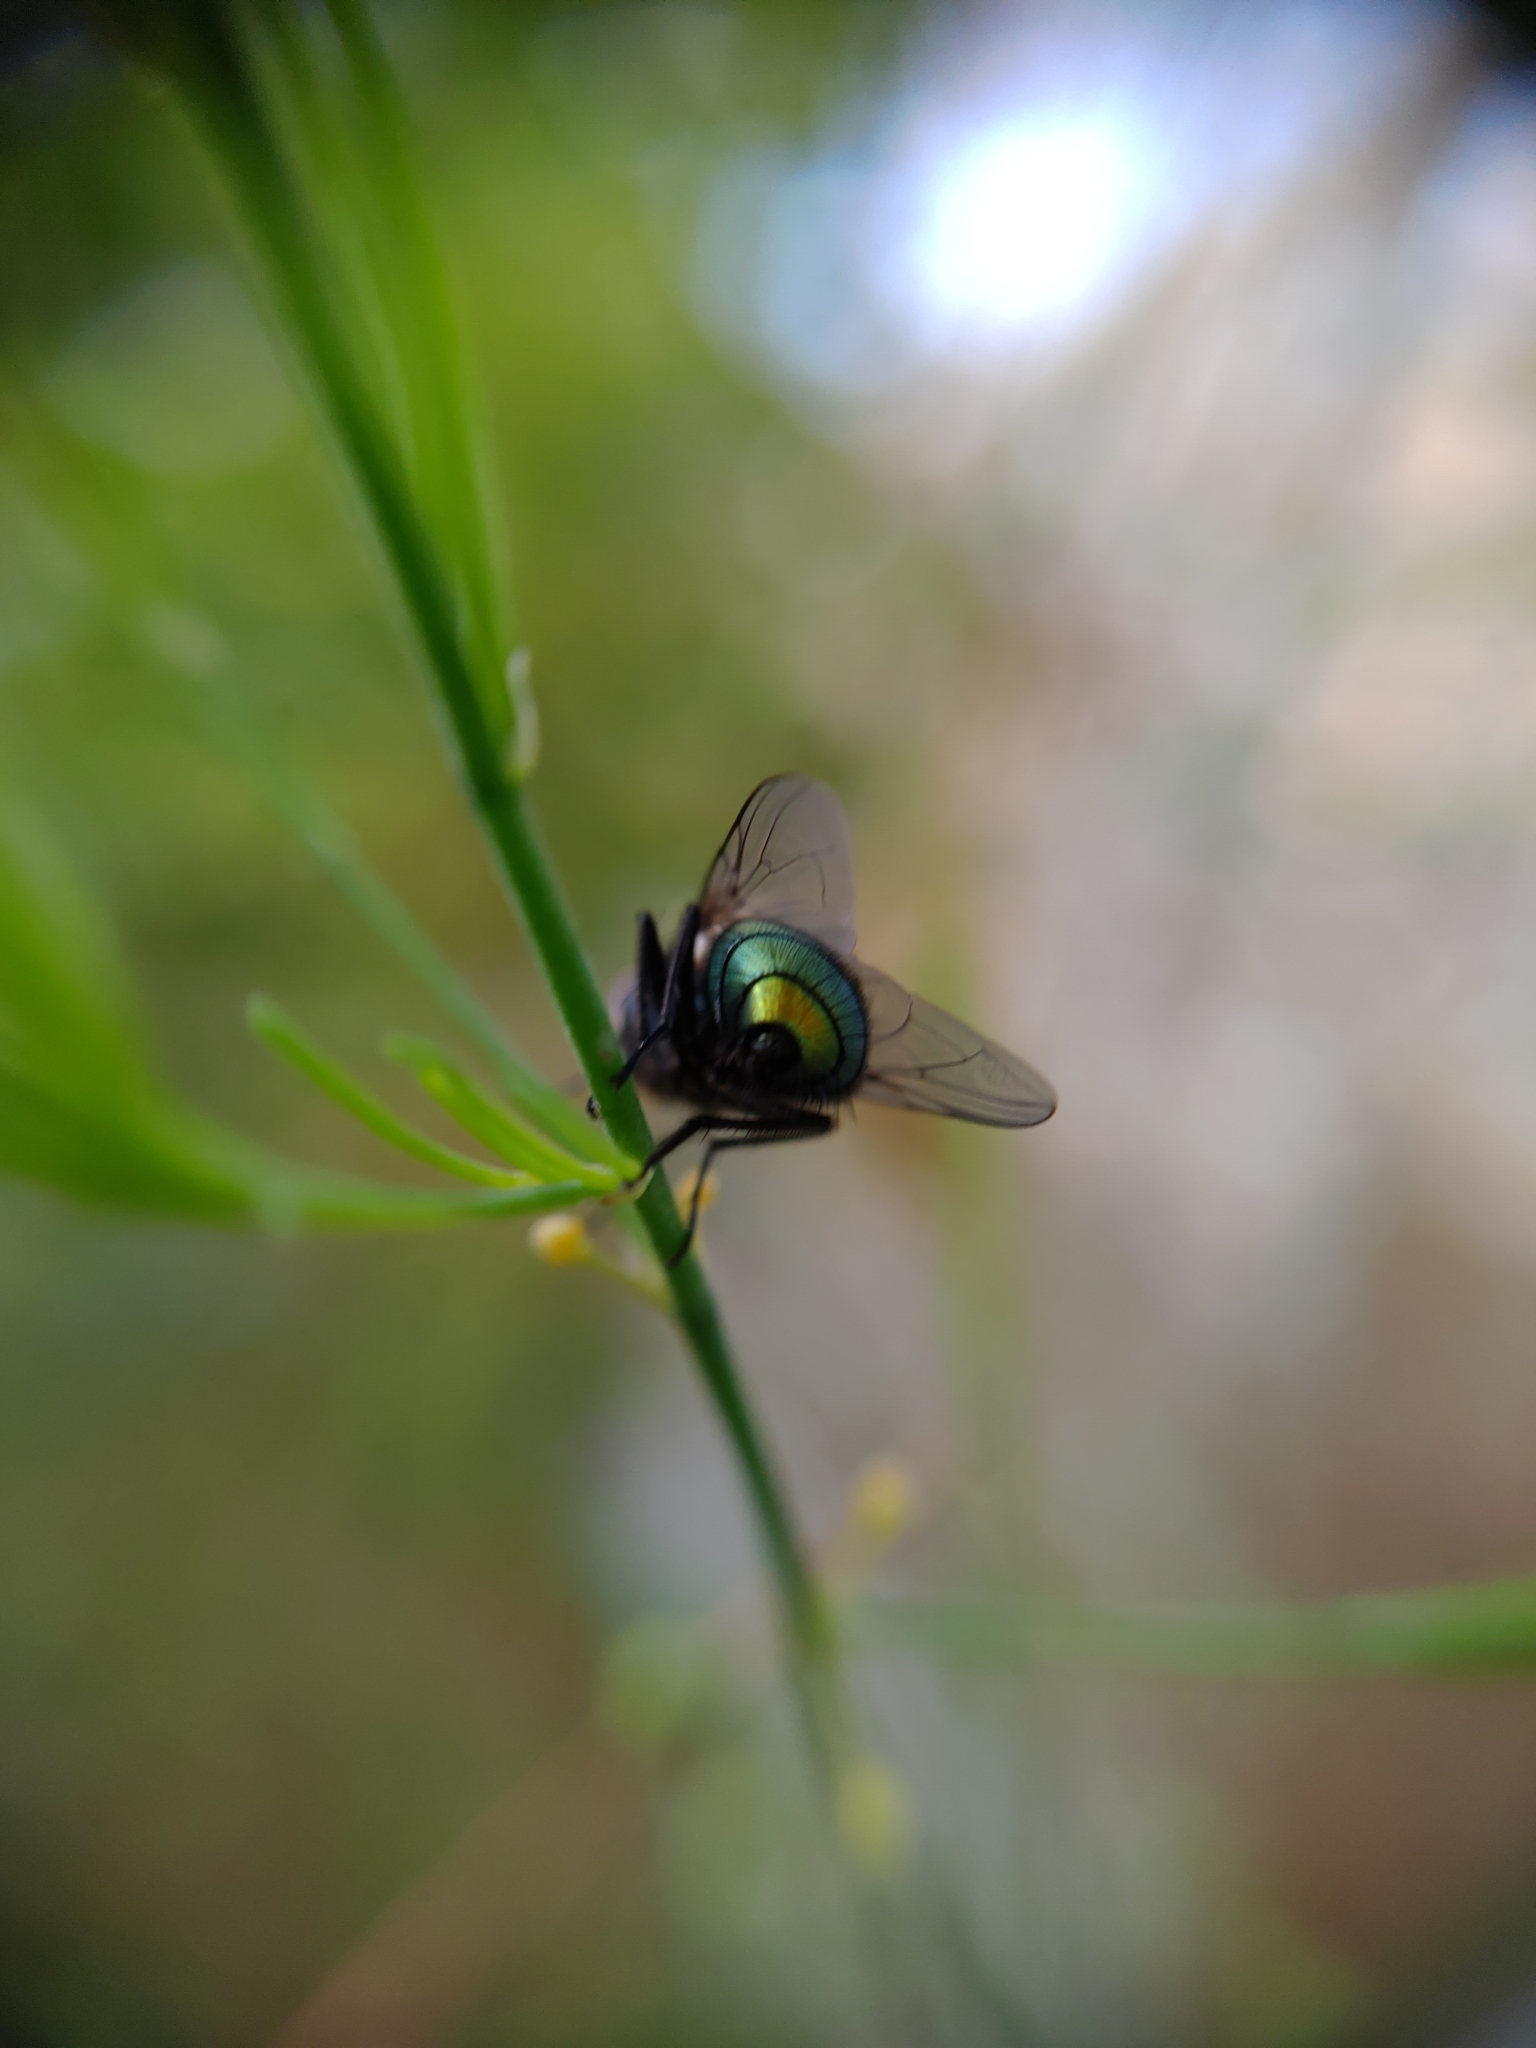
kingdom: Animalia
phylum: Arthropoda
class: Insecta
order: Diptera
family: Calliphoridae
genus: Lucilia
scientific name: Lucilia sericata
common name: Blow fly
